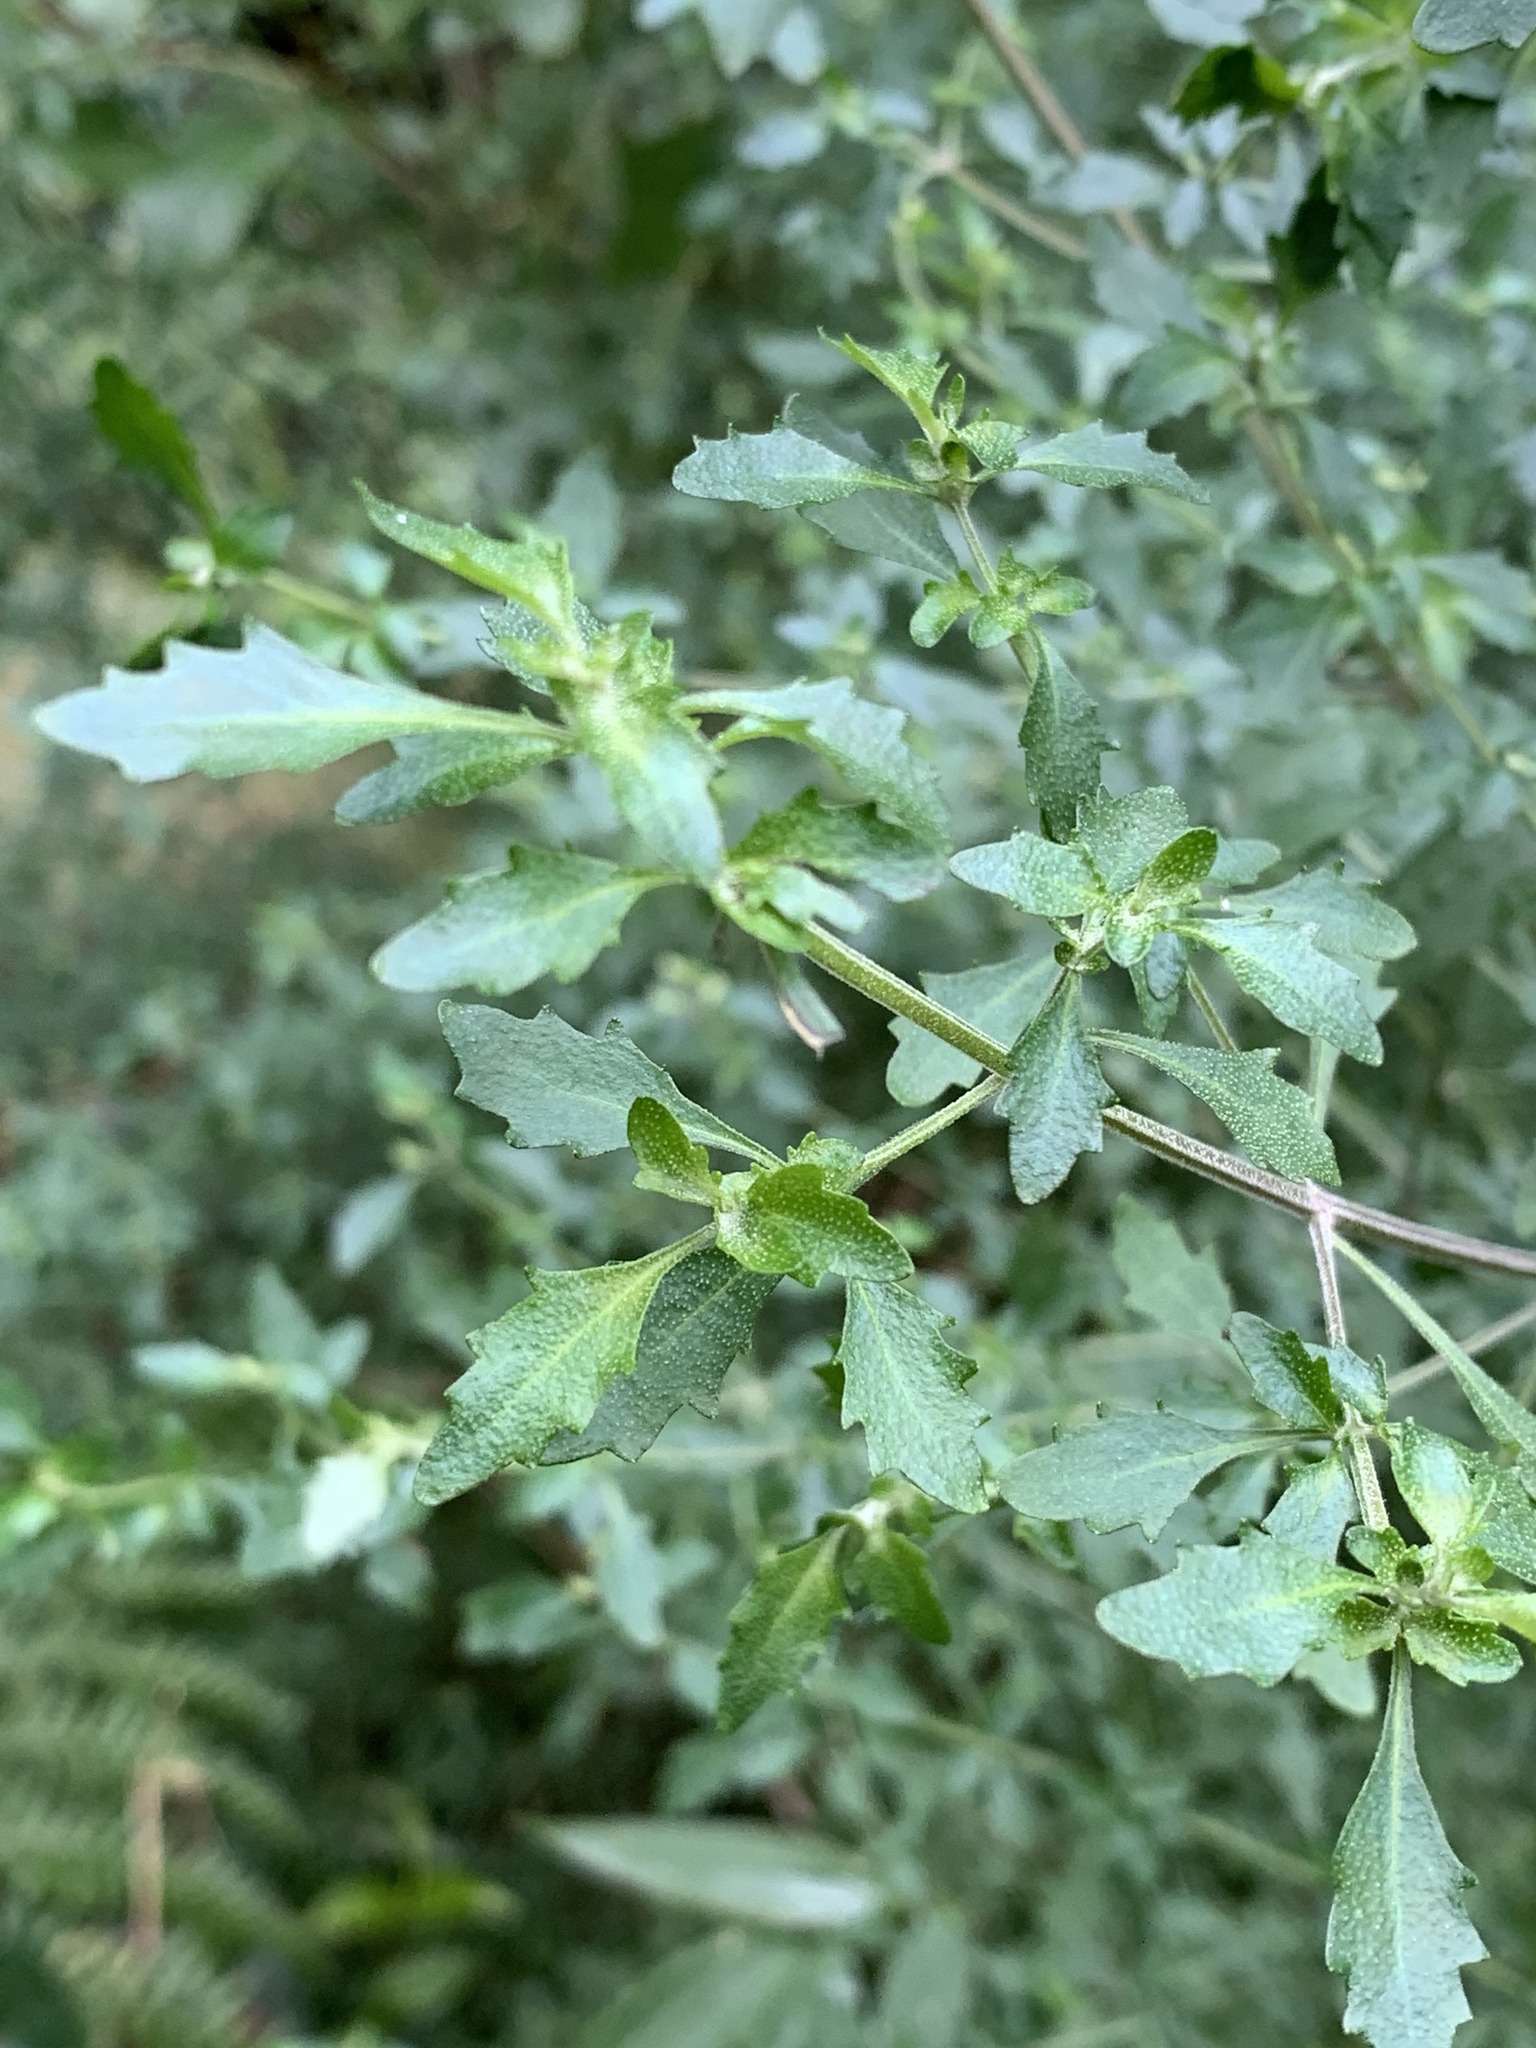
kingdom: Plantae
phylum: Tracheophyta
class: Magnoliopsida
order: Lamiales
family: Lamiaceae
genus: Prostanthera
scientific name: Prostanthera incisa
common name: Cut-leaf mintbush
